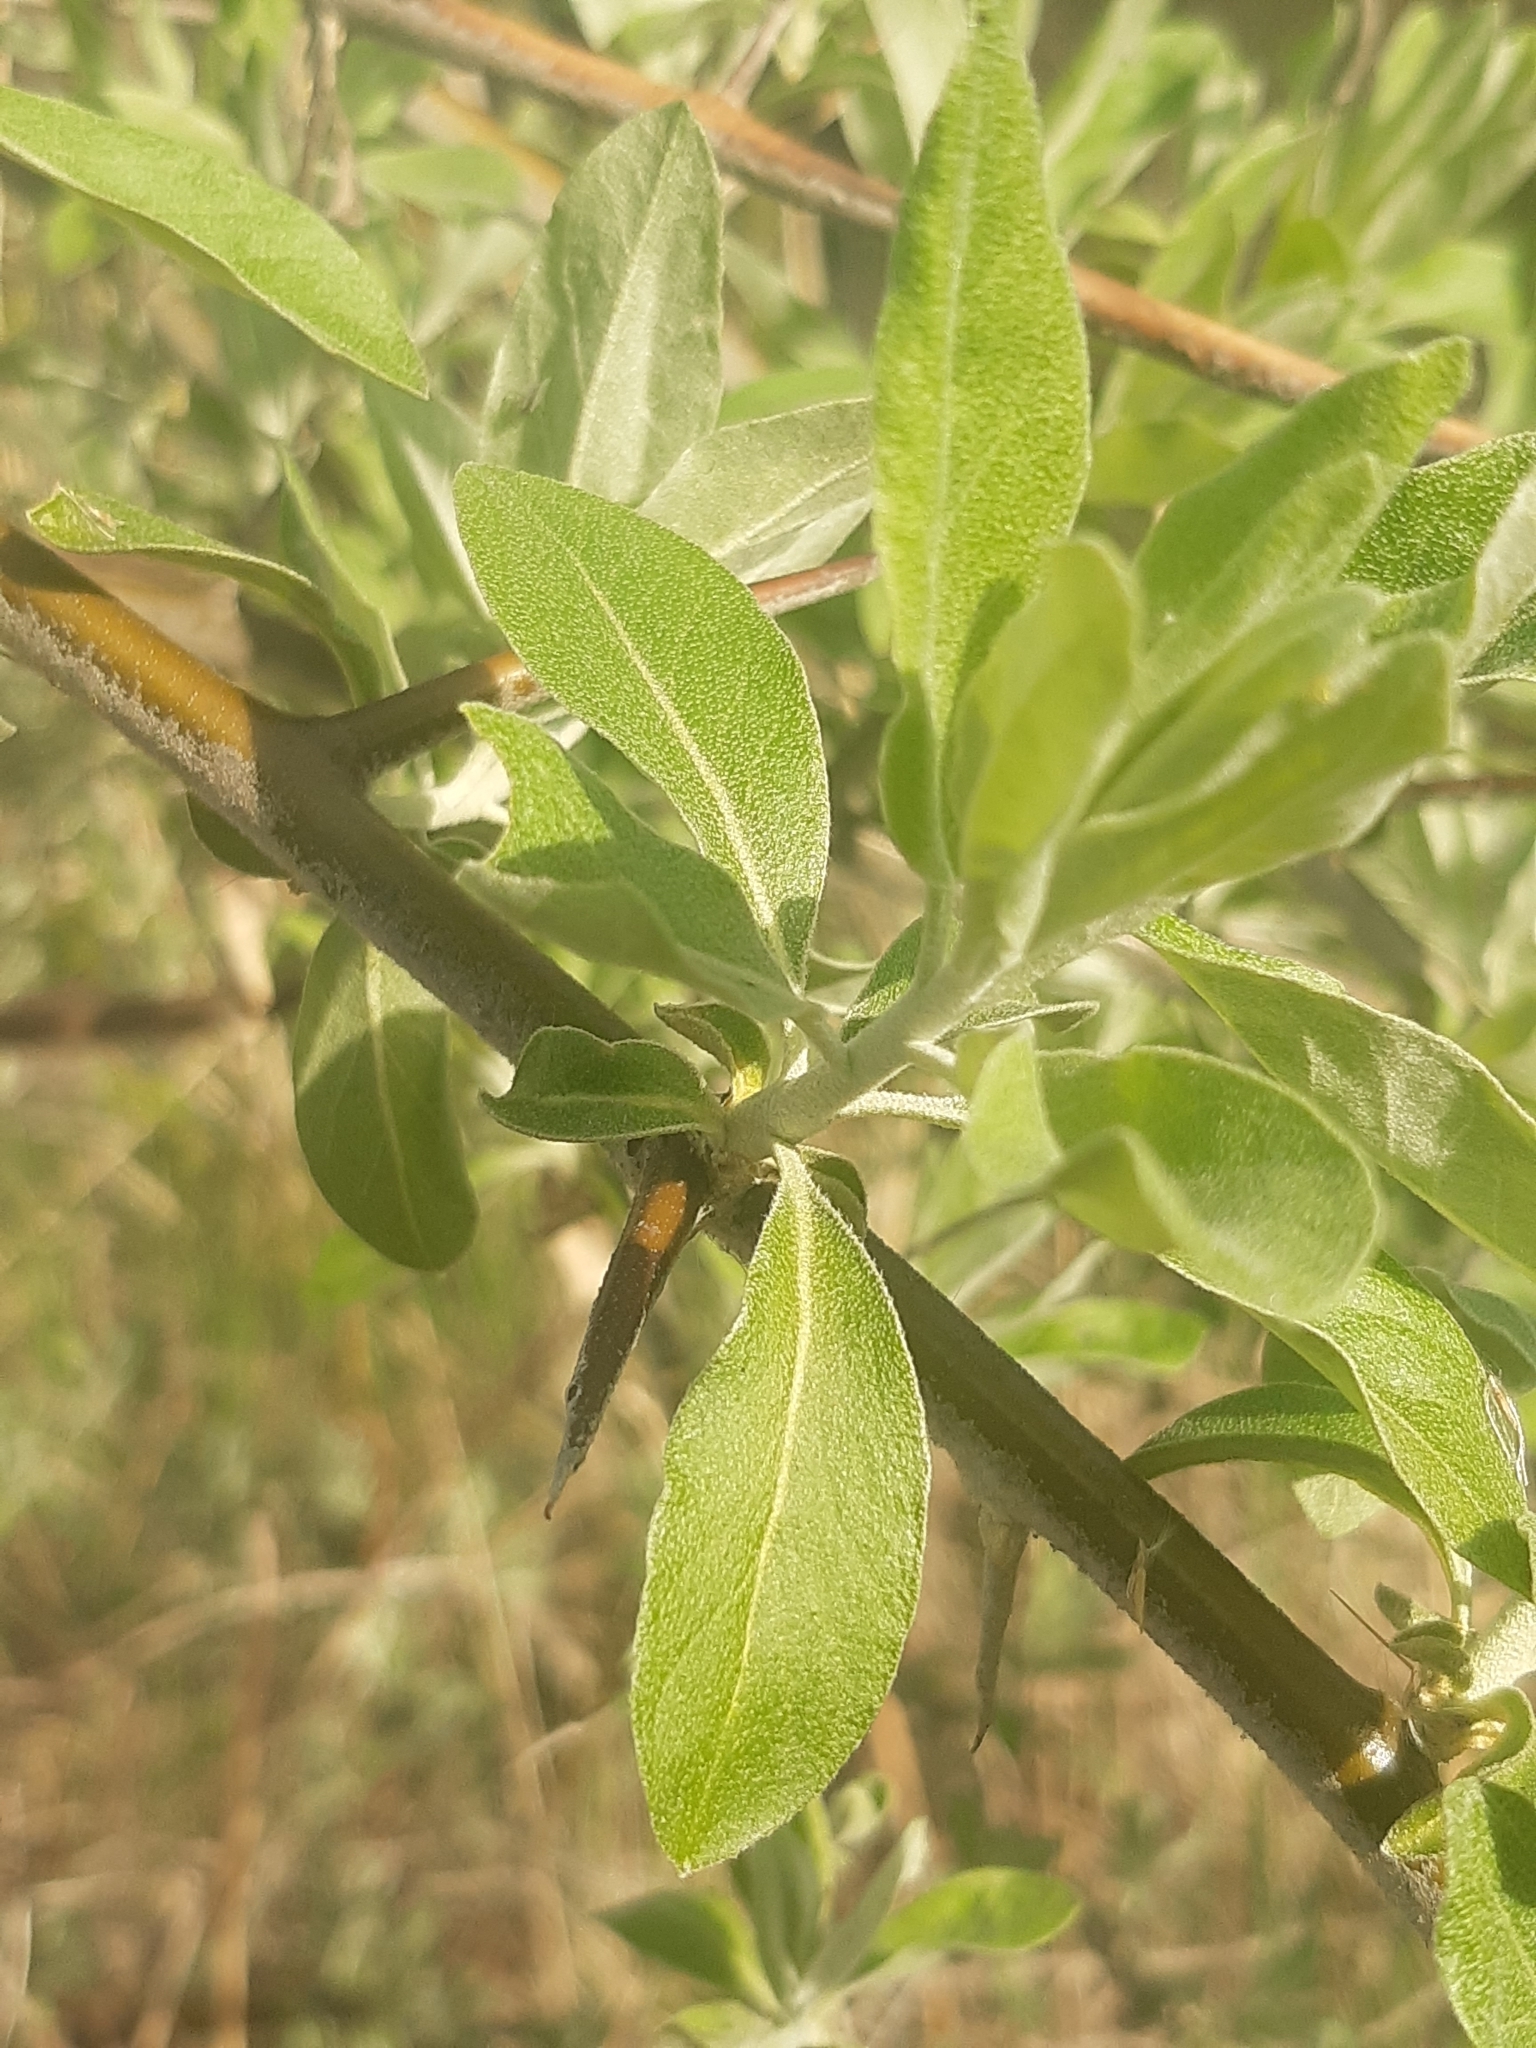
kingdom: Plantae
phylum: Tracheophyta
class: Magnoliopsida
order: Rosales
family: Elaeagnaceae
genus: Elaeagnus
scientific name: Elaeagnus angustifolia
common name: Russian olive
